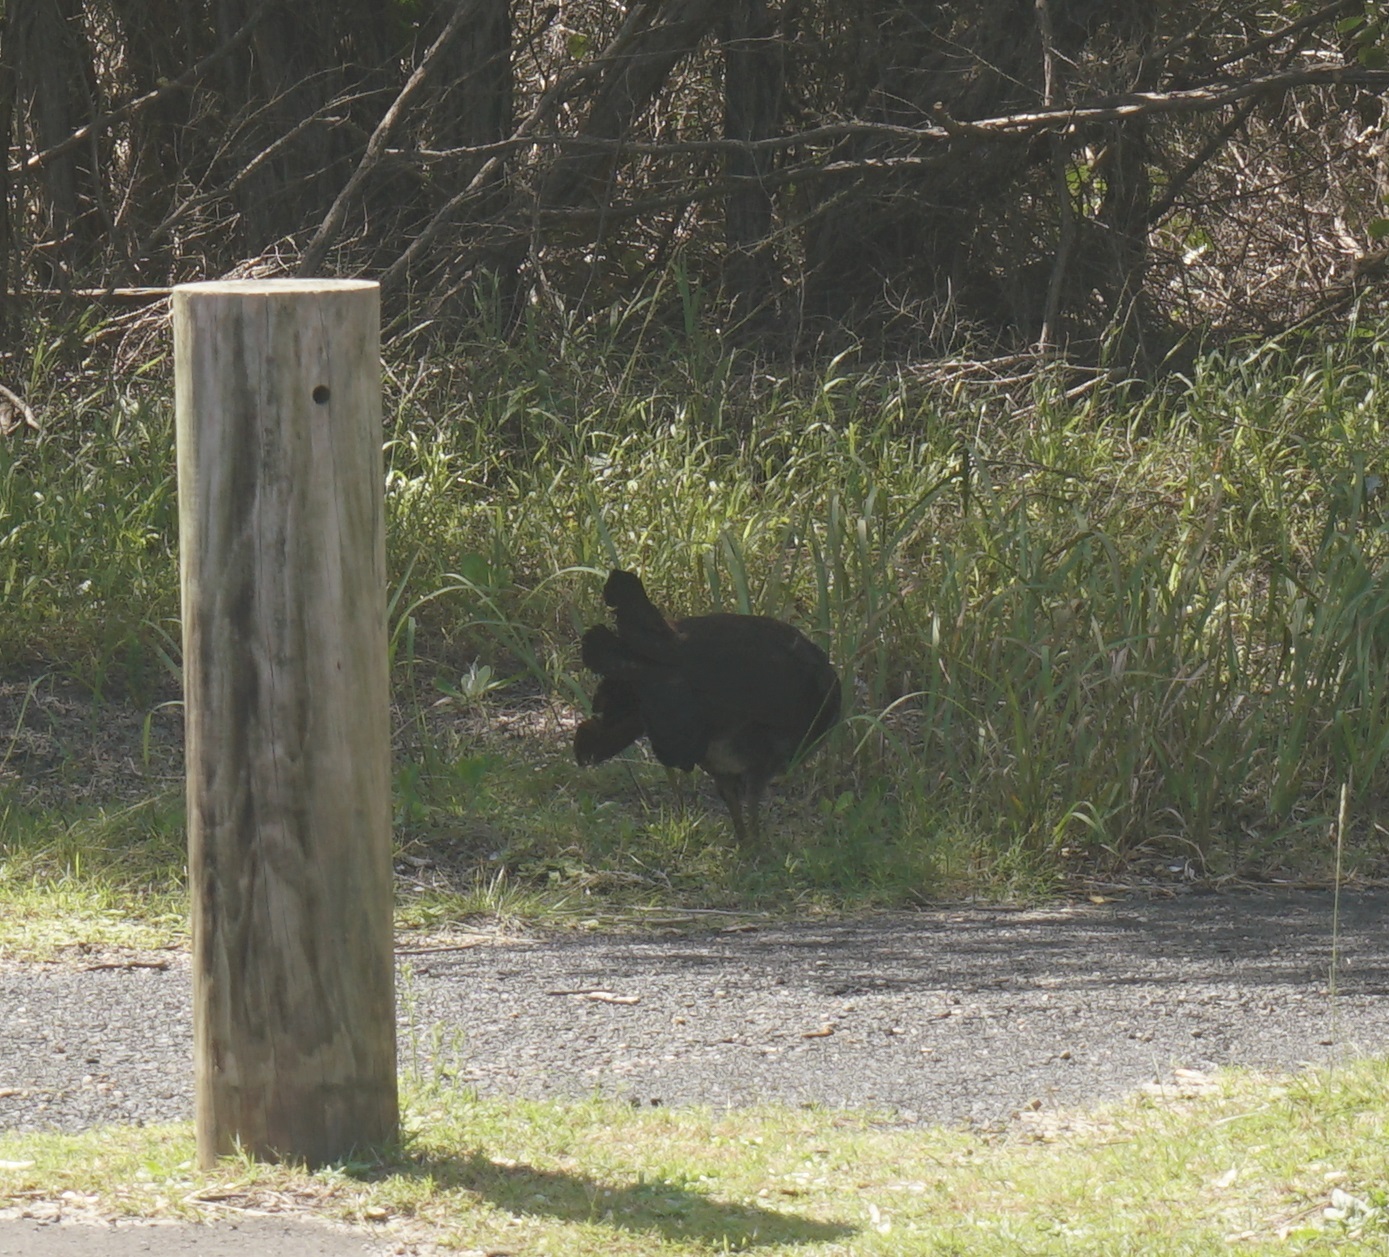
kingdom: Animalia
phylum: Chordata
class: Aves
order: Galliformes
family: Megapodiidae
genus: Alectura
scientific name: Alectura lathami
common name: Australian brushturkey
